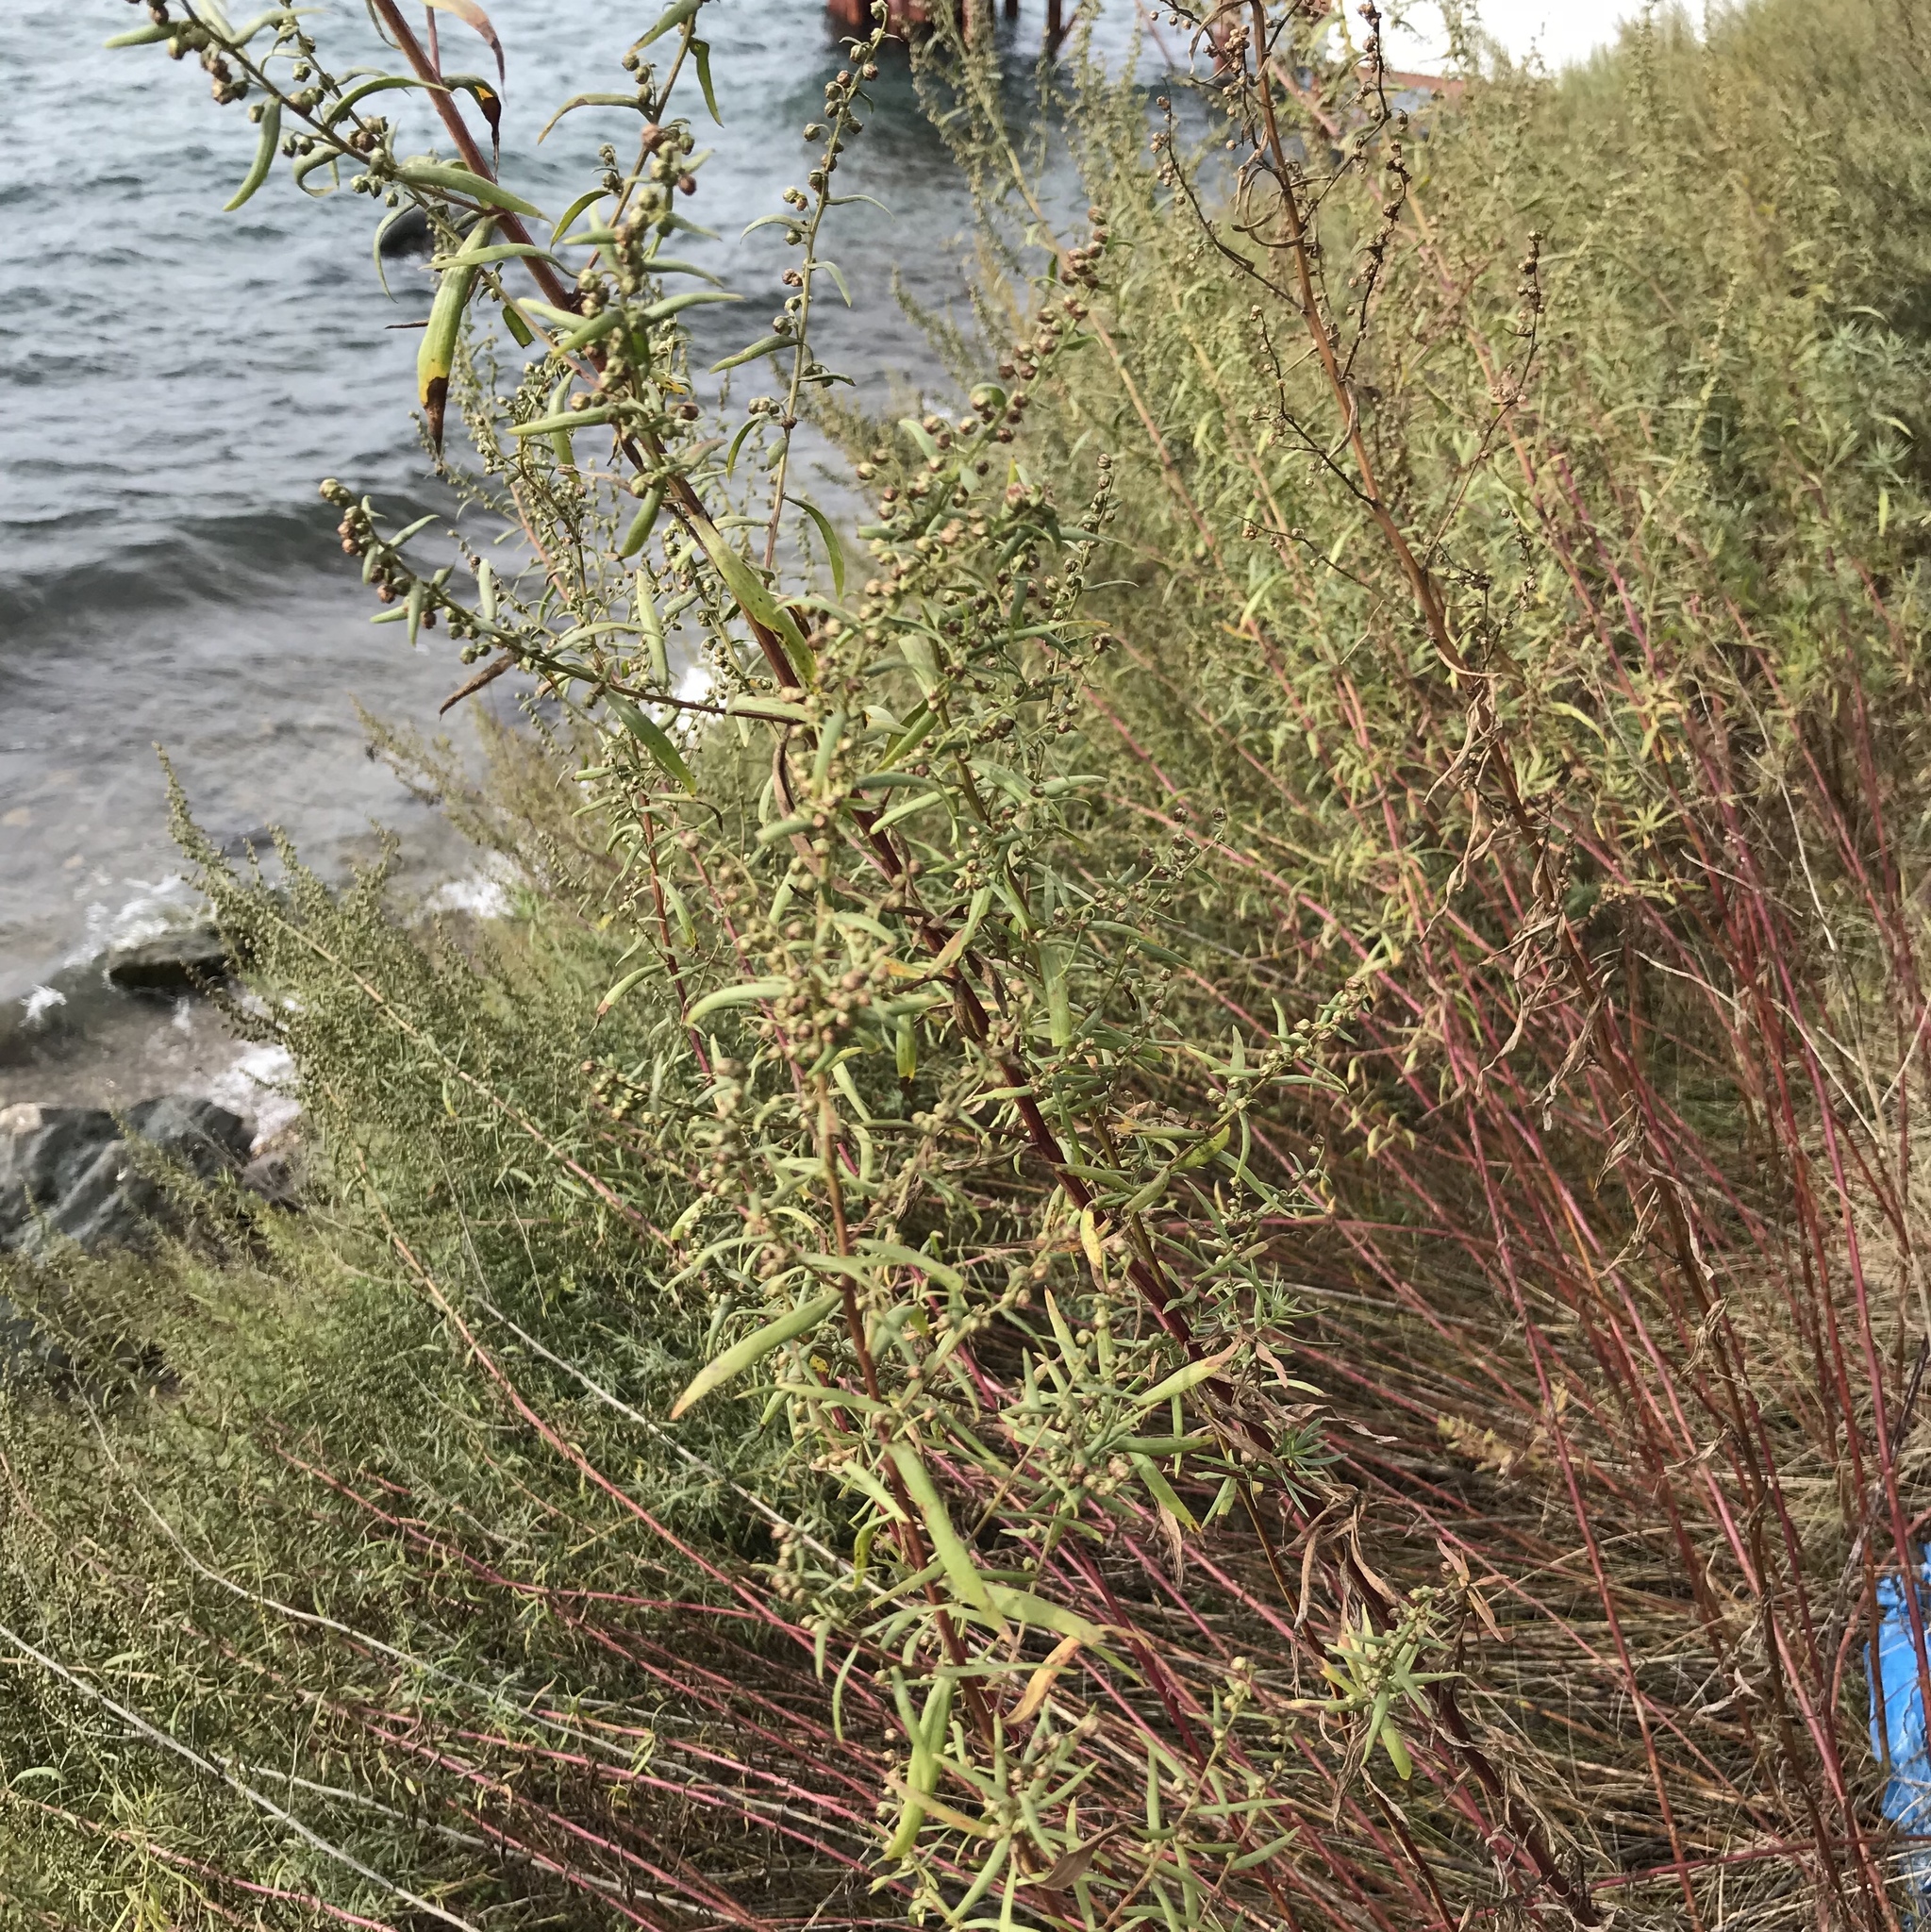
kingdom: Plantae
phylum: Tracheophyta
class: Magnoliopsida
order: Asterales
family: Asteraceae
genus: Artemisia
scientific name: Artemisia dracunculus
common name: Tarragon
